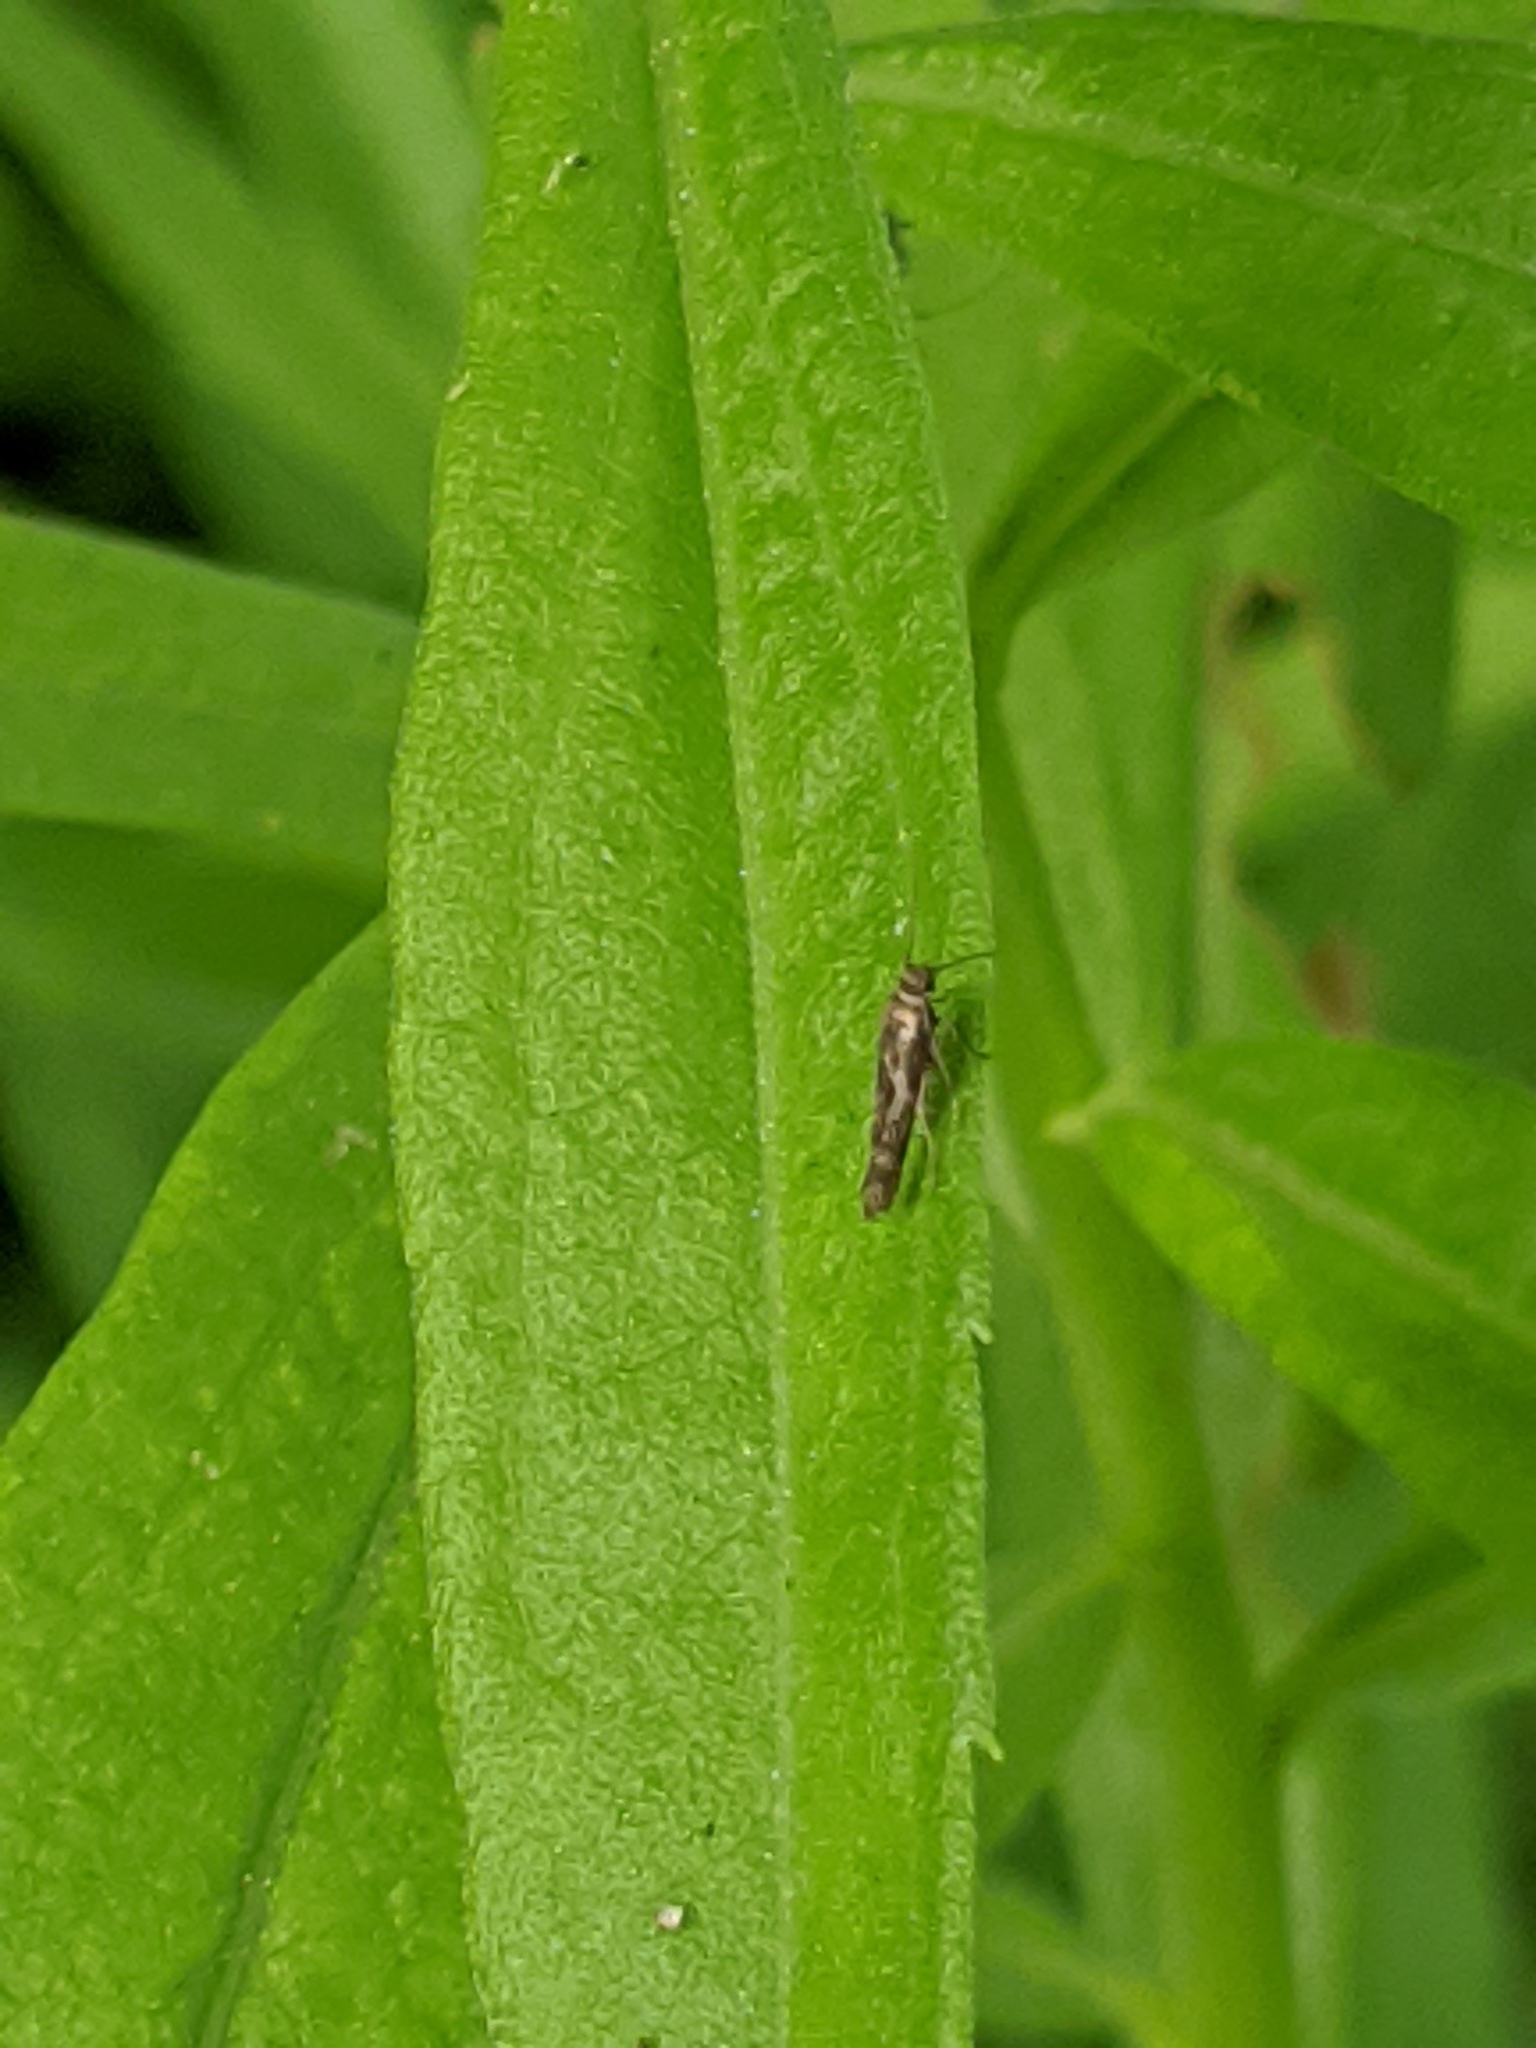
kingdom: Animalia
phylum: Arthropoda
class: Insecta
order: Lepidoptera
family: Scythrididae
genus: Scythris
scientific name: Scythris trivinctella
